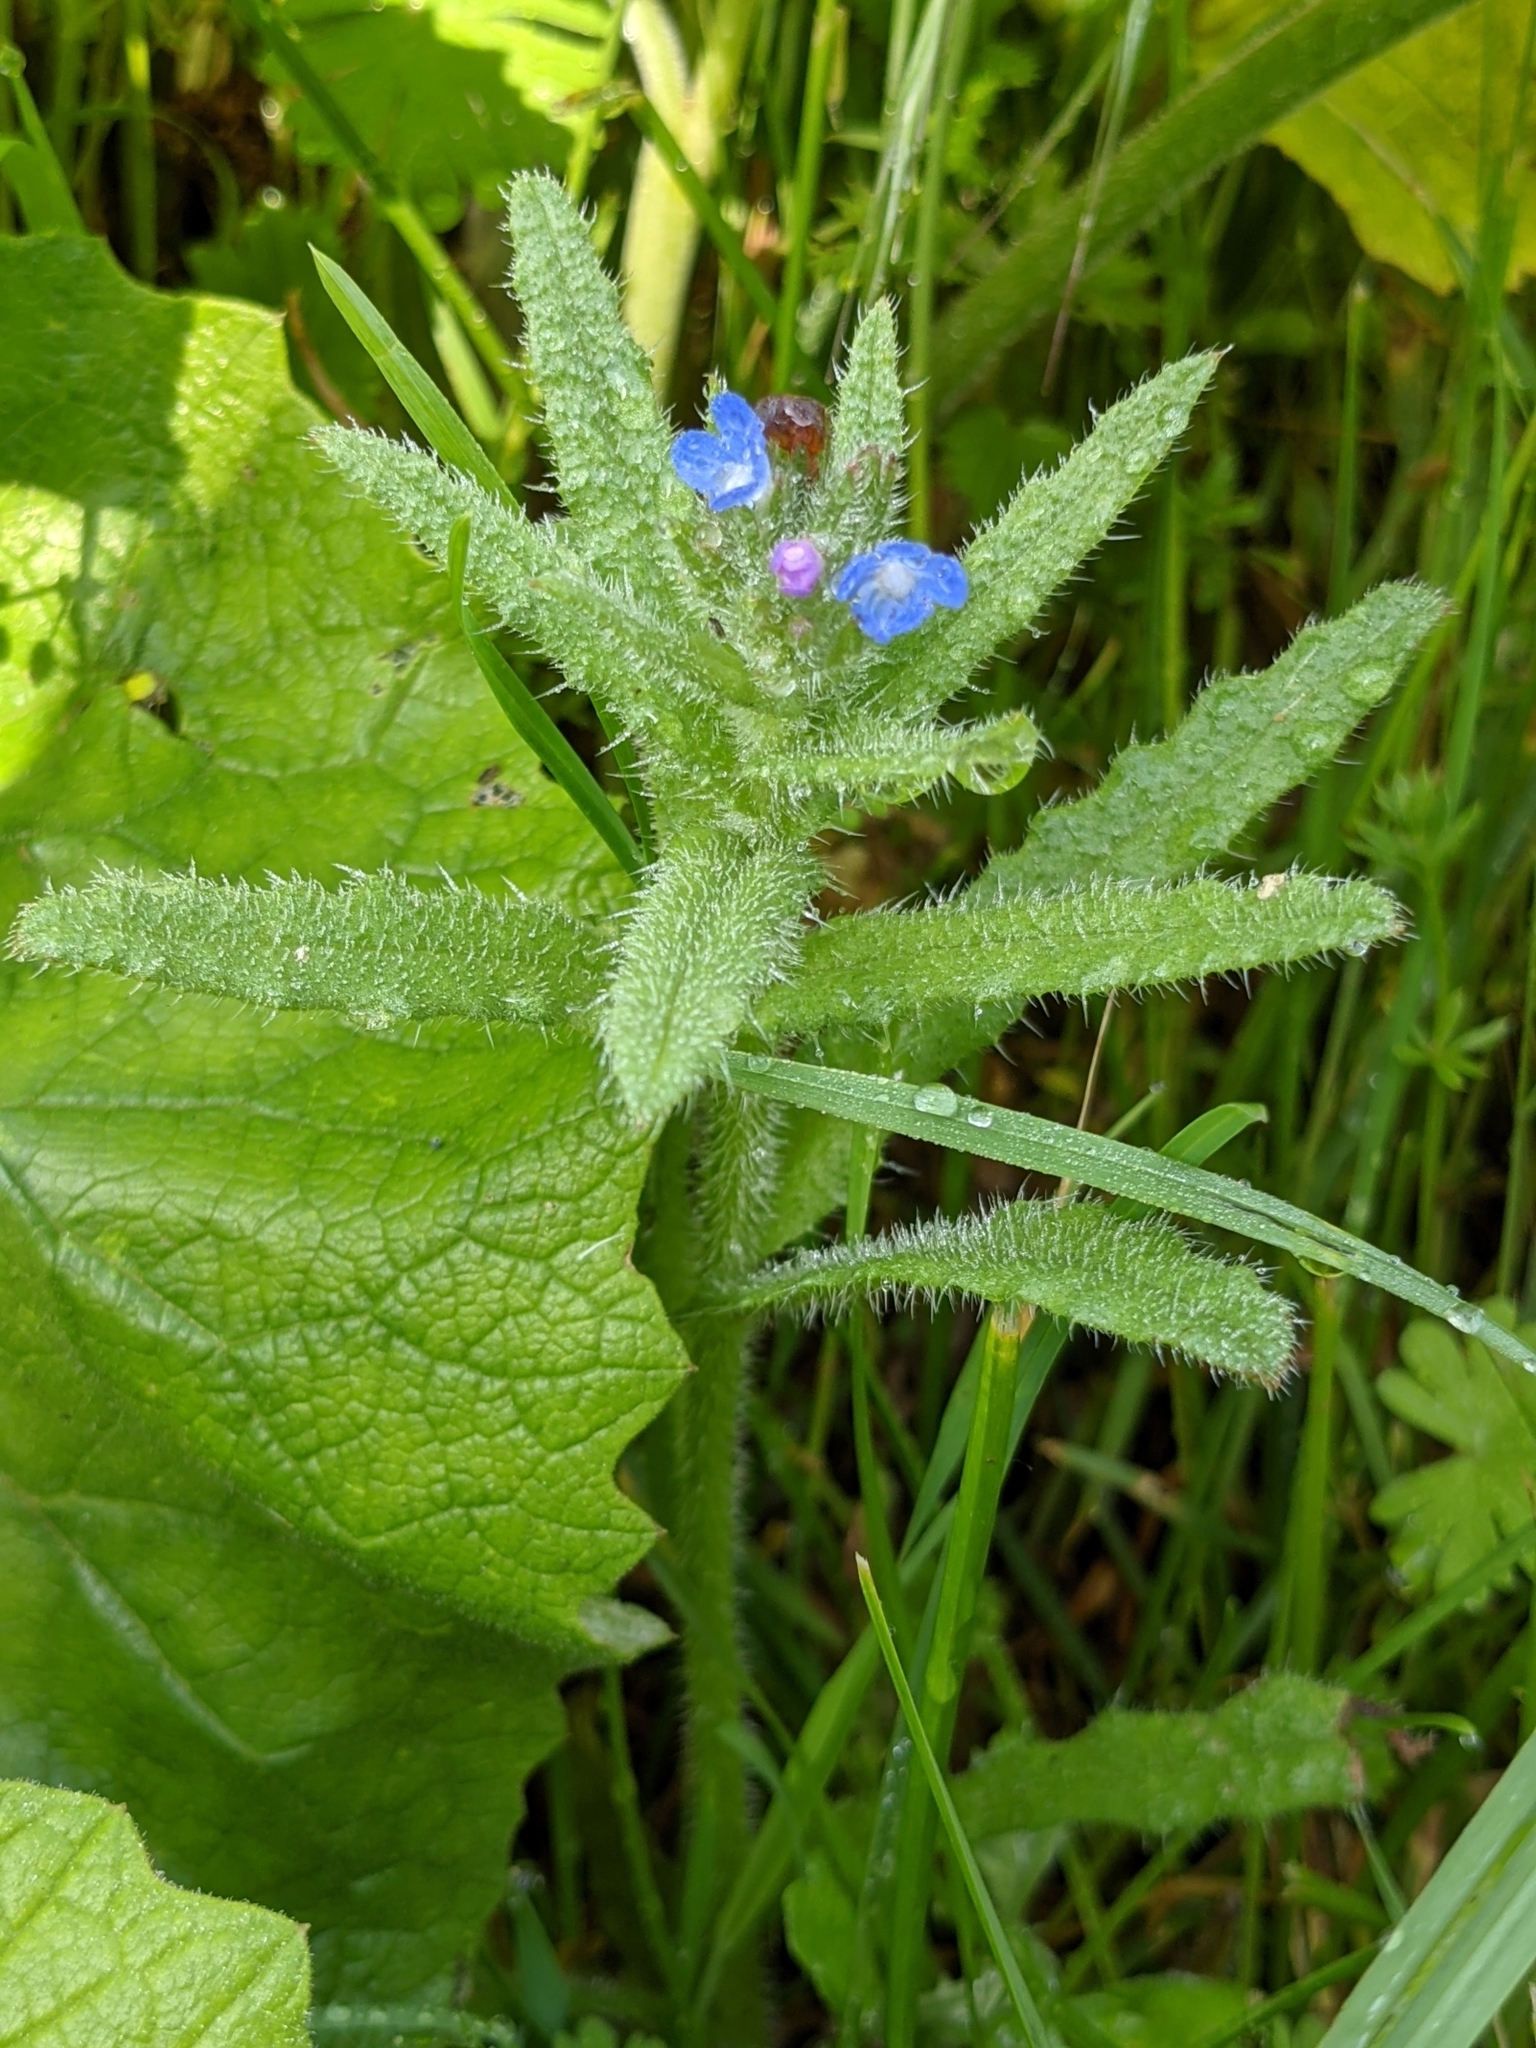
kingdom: Plantae
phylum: Tracheophyta
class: Magnoliopsida
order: Boraginales
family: Boraginaceae
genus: Lycopsis
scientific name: Lycopsis arvensis
